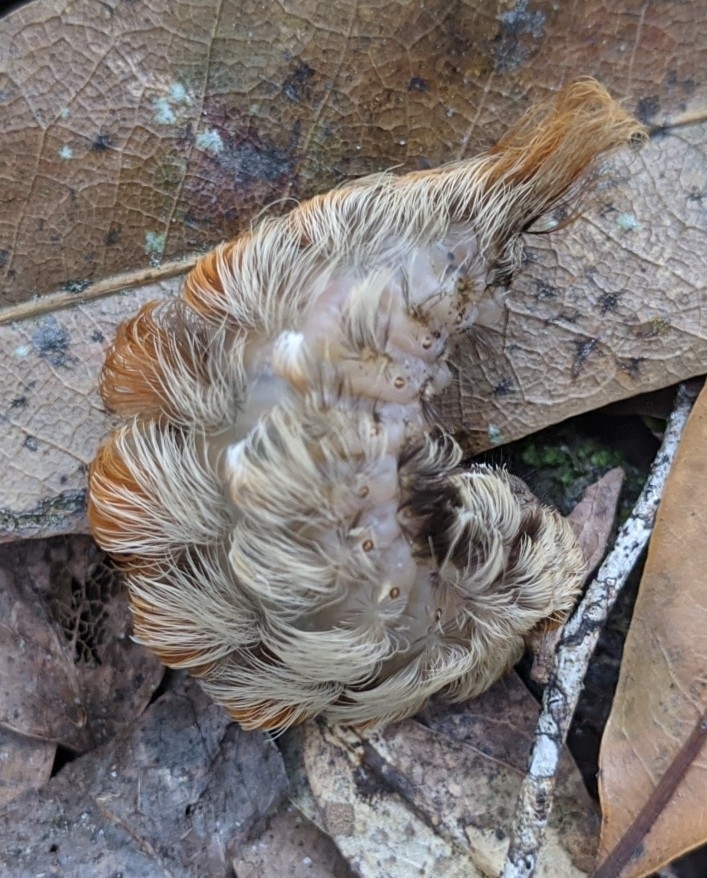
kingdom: Animalia
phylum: Arthropoda
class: Insecta
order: Lepidoptera
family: Megalopygidae
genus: Megalopyge
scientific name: Megalopyge opercularis
